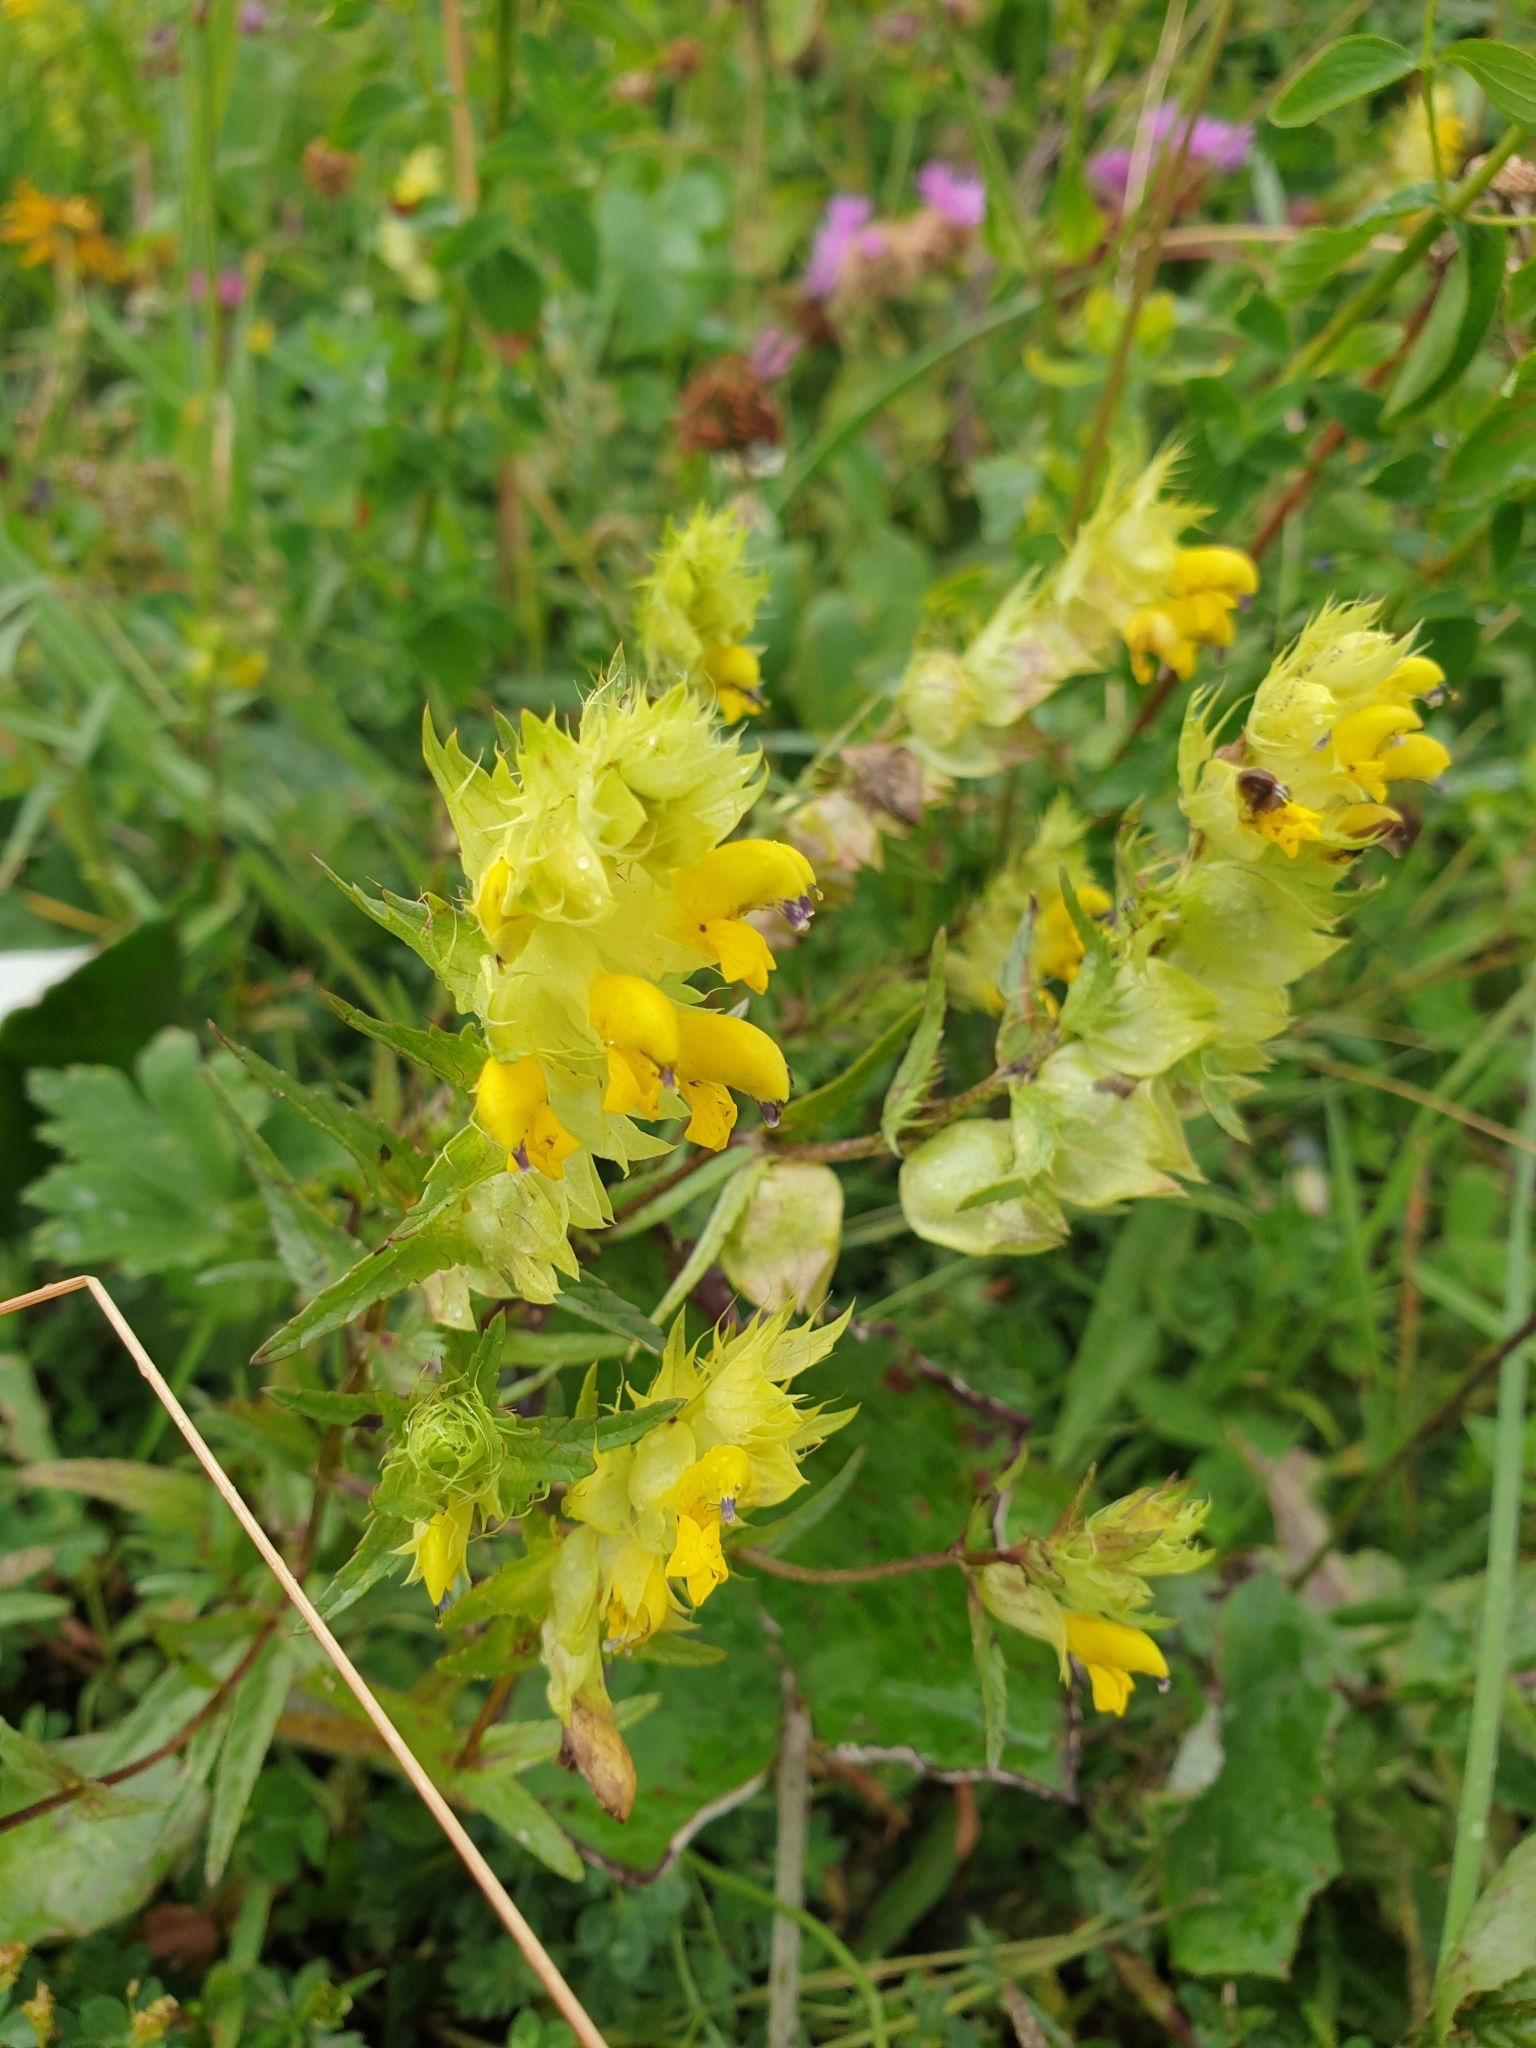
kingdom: Plantae
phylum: Tracheophyta
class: Magnoliopsida
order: Lamiales
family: Orobanchaceae
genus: Rhinanthus
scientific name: Rhinanthus glacialis
